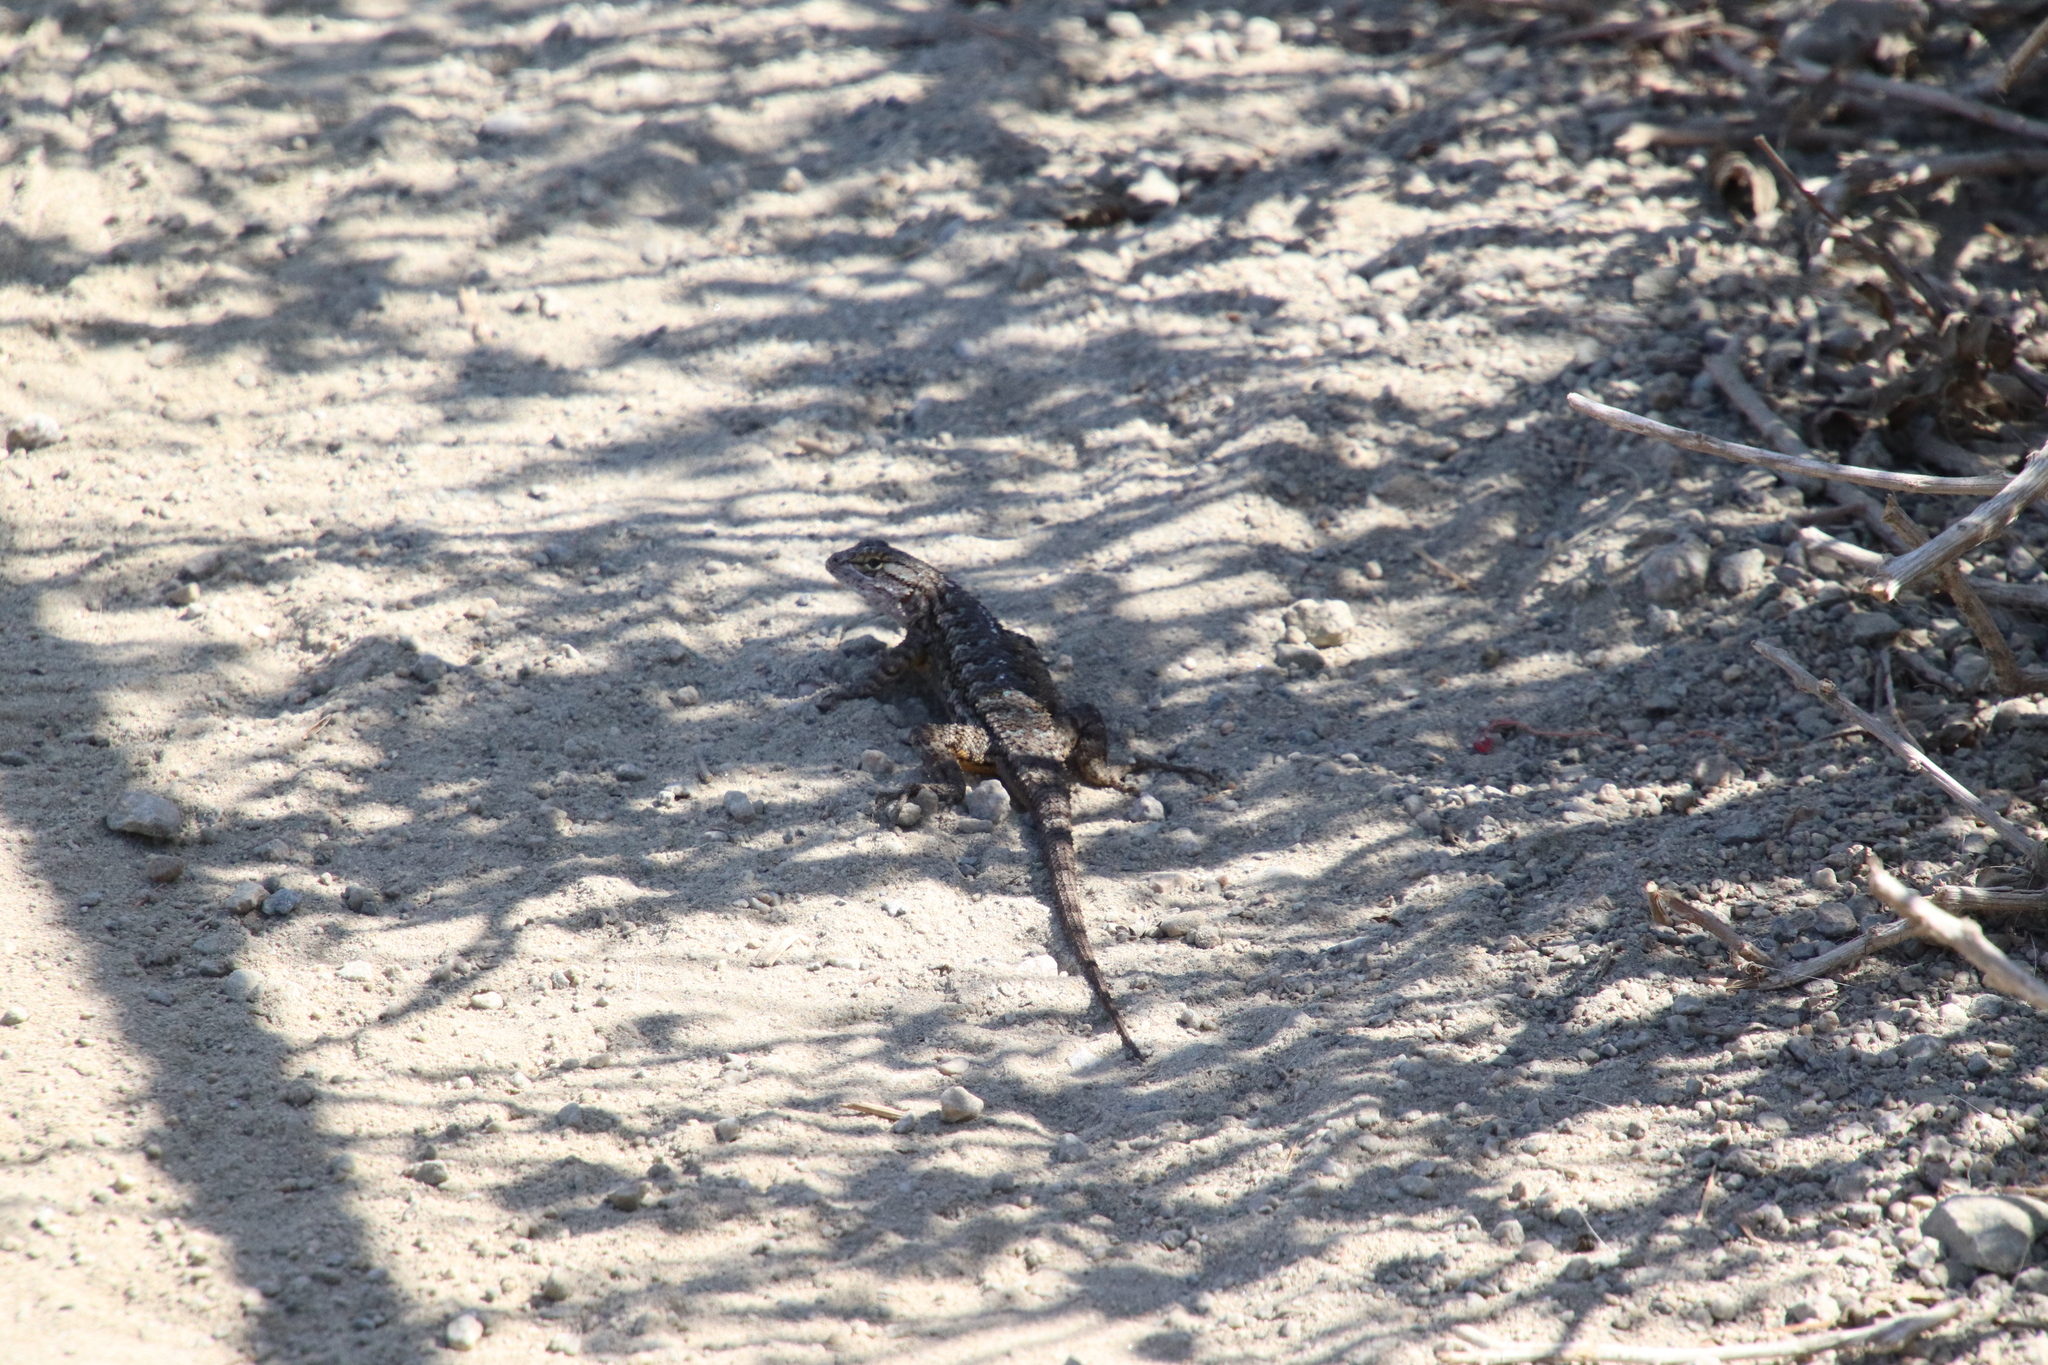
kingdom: Animalia
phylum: Chordata
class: Squamata
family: Phrynosomatidae
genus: Sceloporus
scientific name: Sceloporus occidentalis
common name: Western fence lizard
